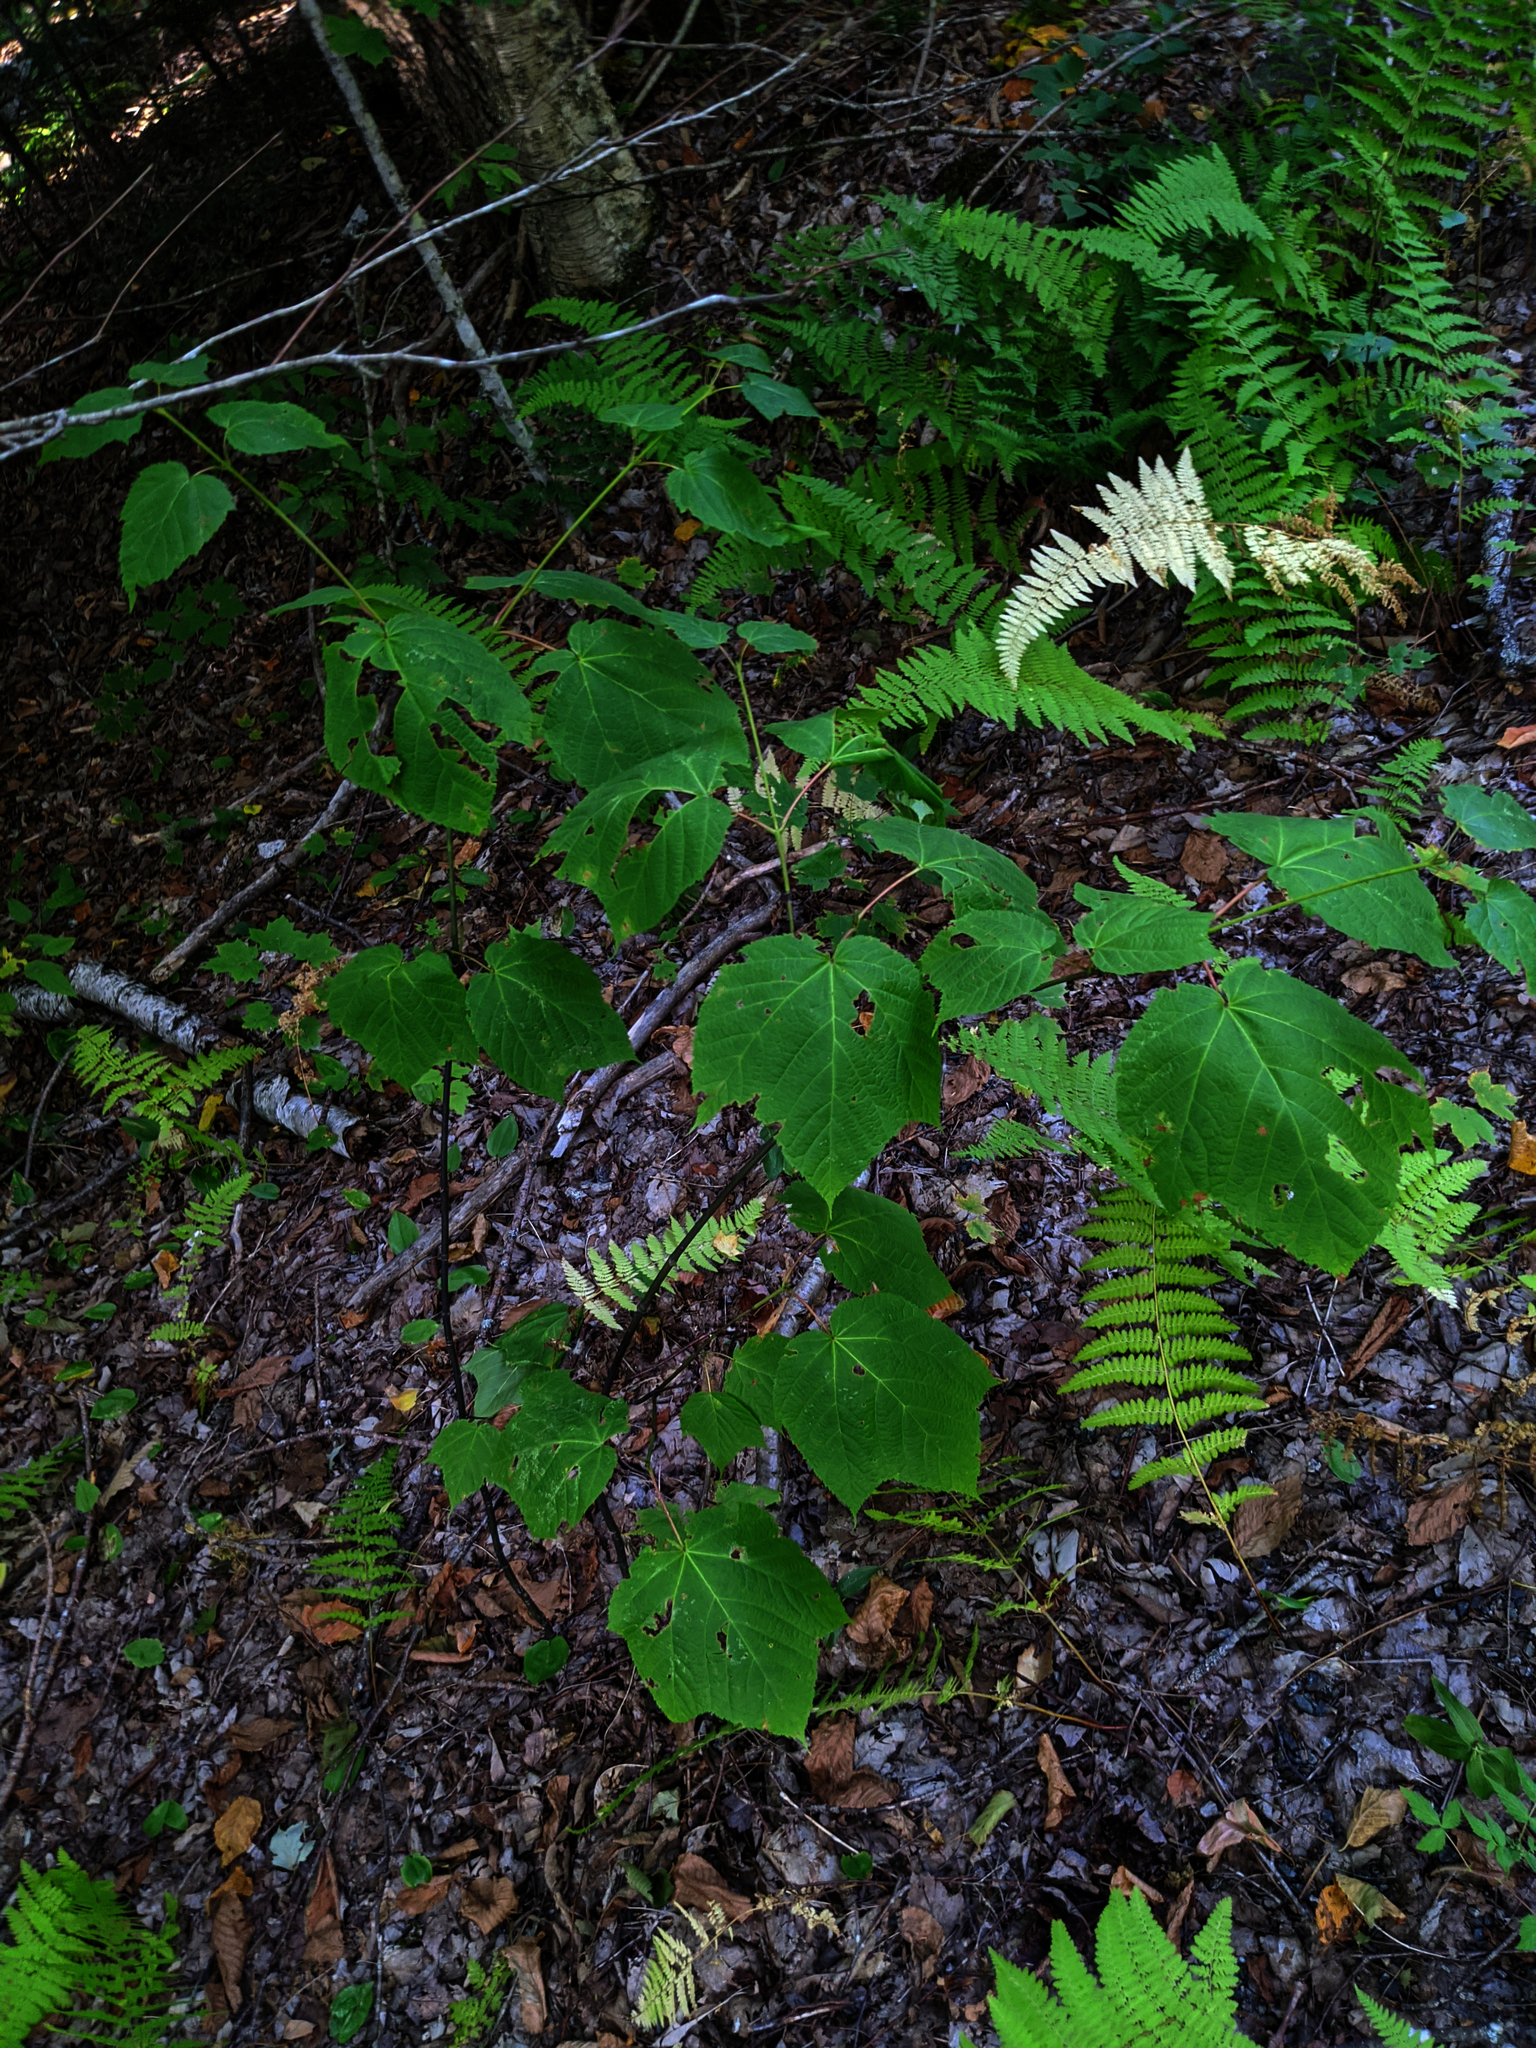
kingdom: Plantae
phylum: Tracheophyta
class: Magnoliopsida
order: Sapindales
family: Sapindaceae
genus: Acer
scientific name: Acer pensylvanicum
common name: Moosewood
